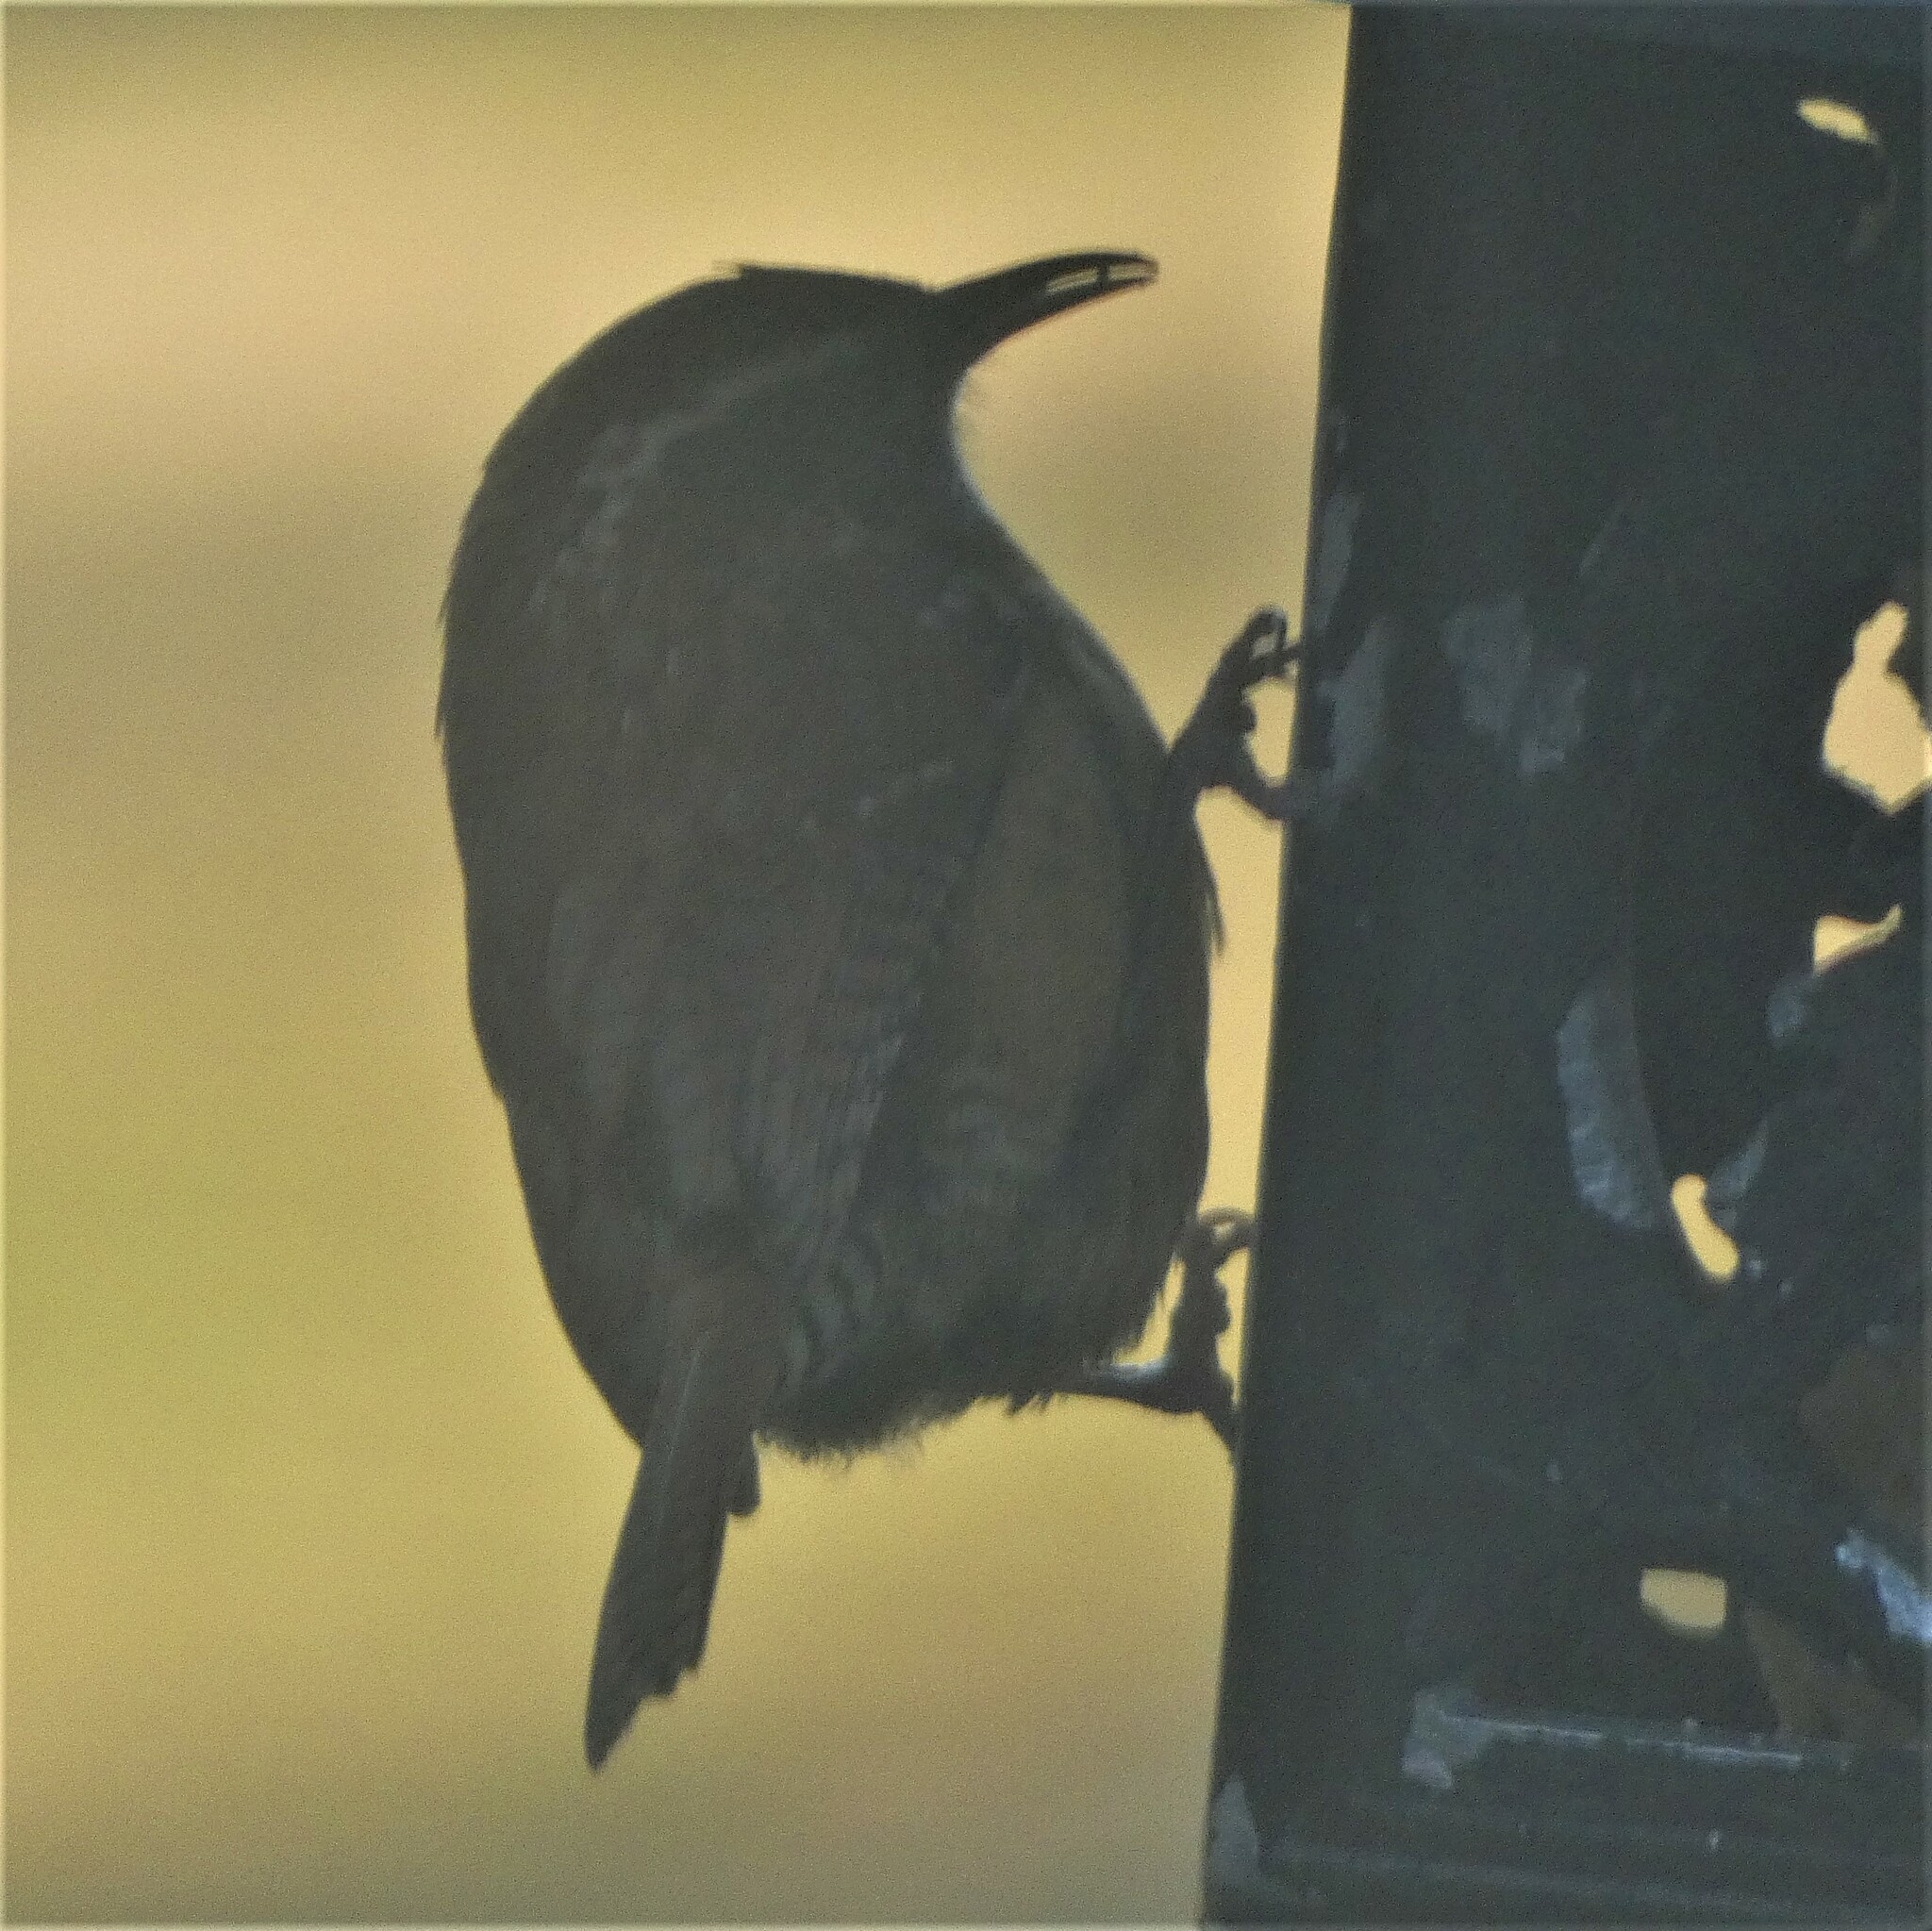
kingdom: Animalia
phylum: Chordata
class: Aves
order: Passeriformes
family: Troglodytidae
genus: Thryothorus
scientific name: Thryothorus ludovicianus
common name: Carolina wren
